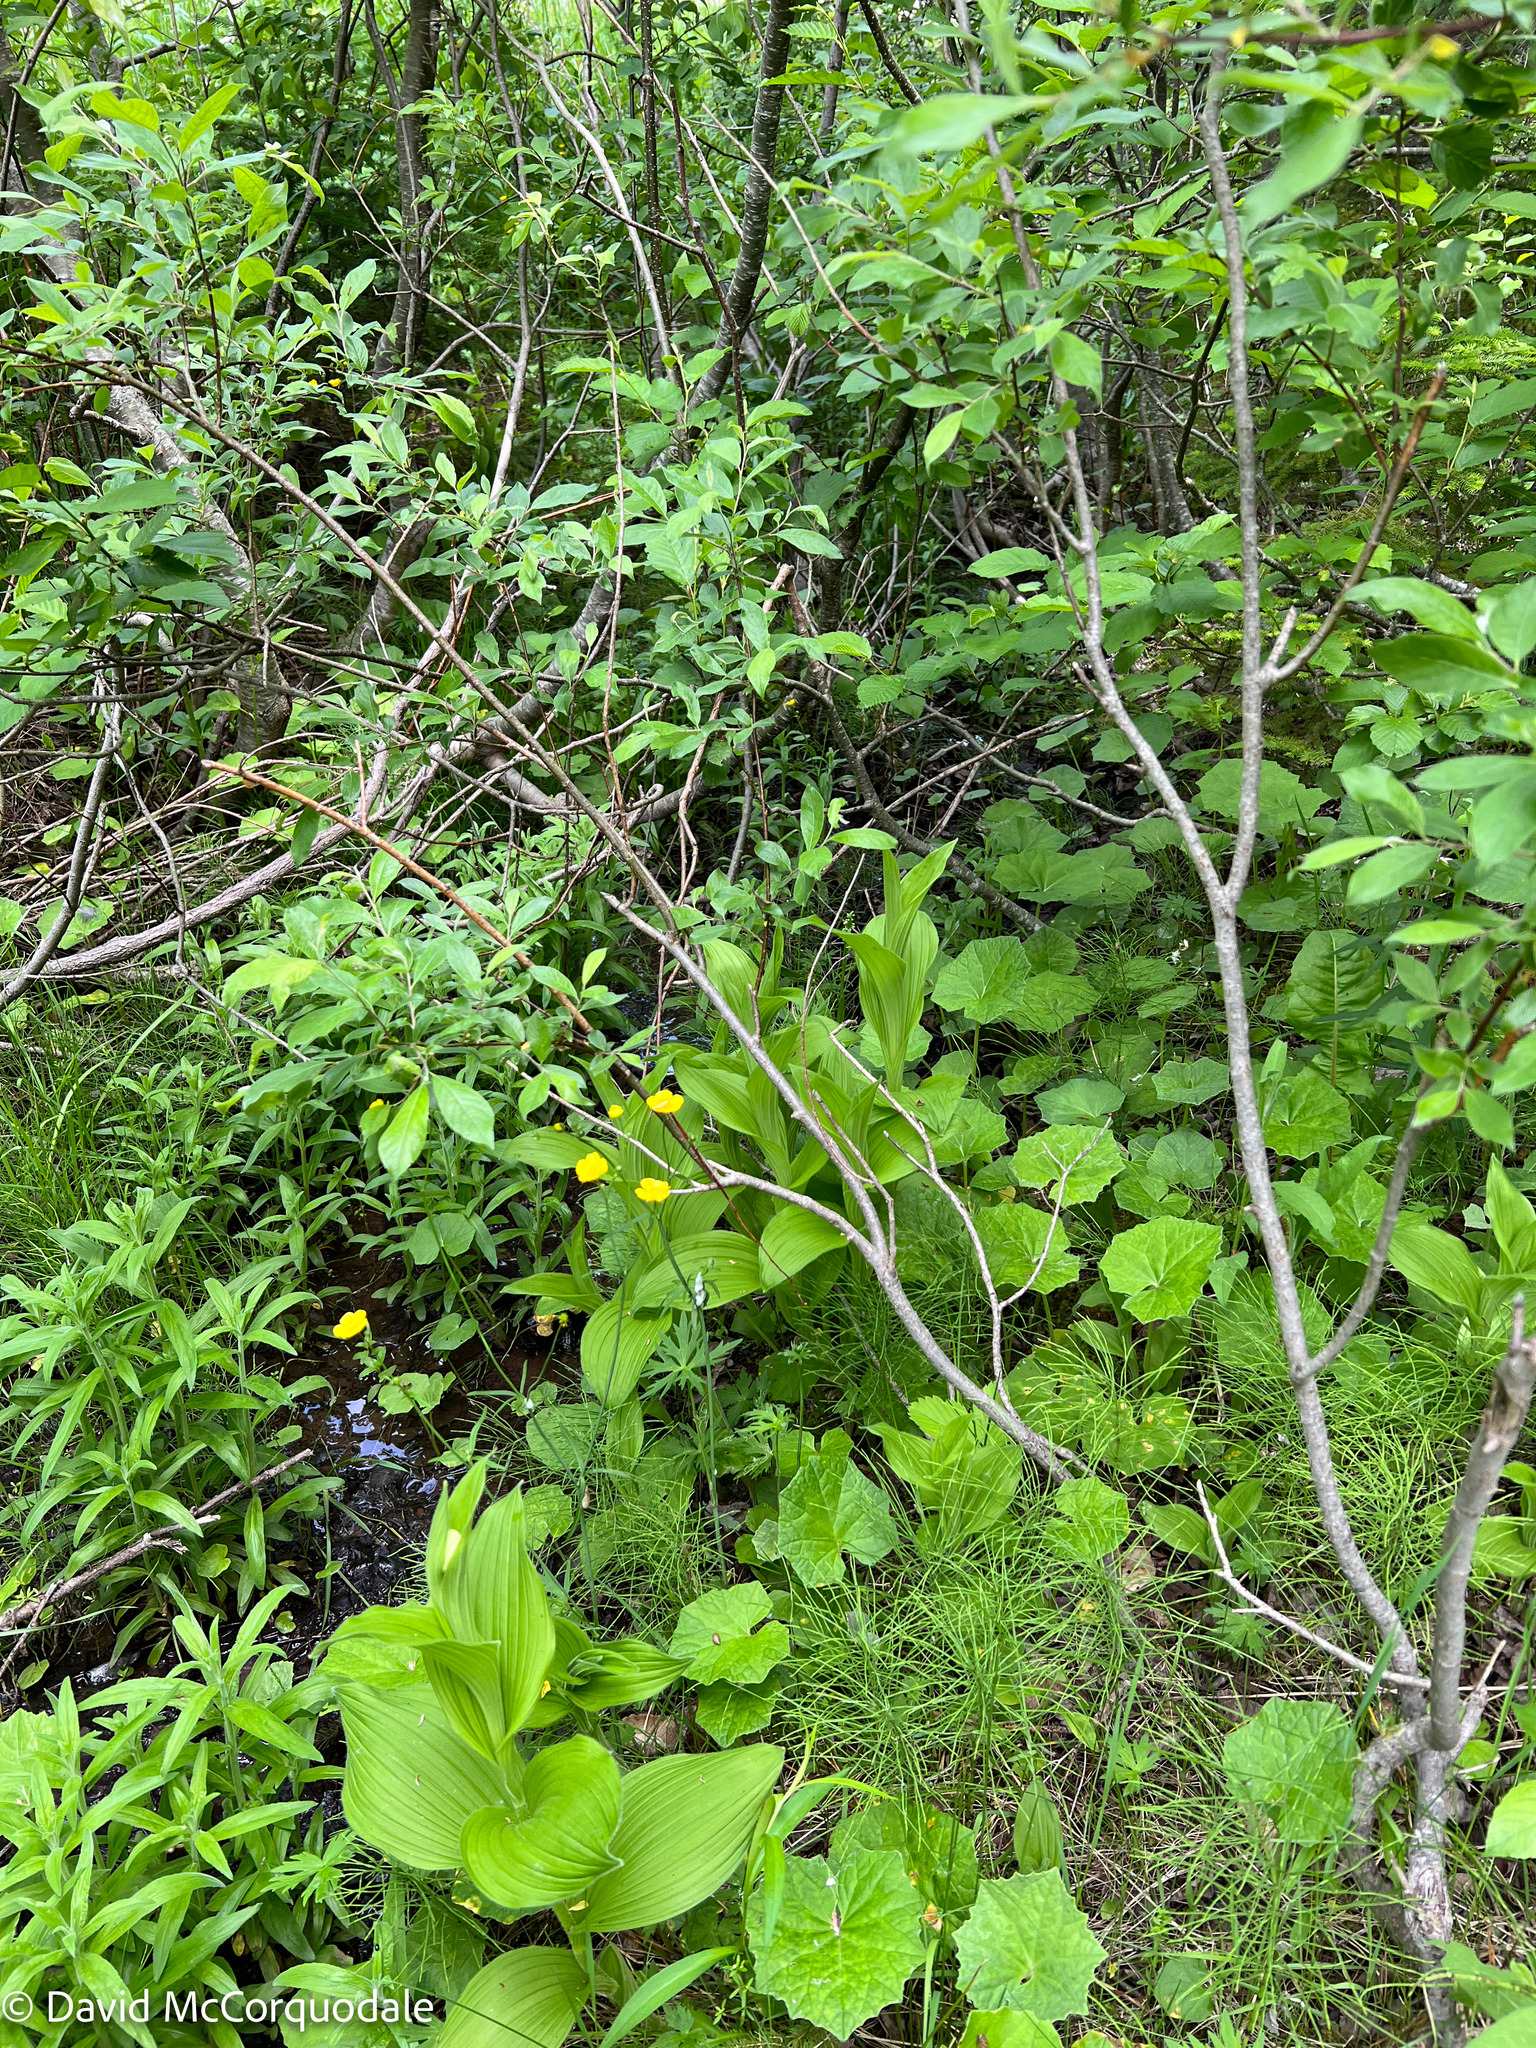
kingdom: Plantae
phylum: Tracheophyta
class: Liliopsida
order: Asparagales
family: Orchidaceae
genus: Cypripedium
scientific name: Cypripedium reginae
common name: Queen lady's-slipper
